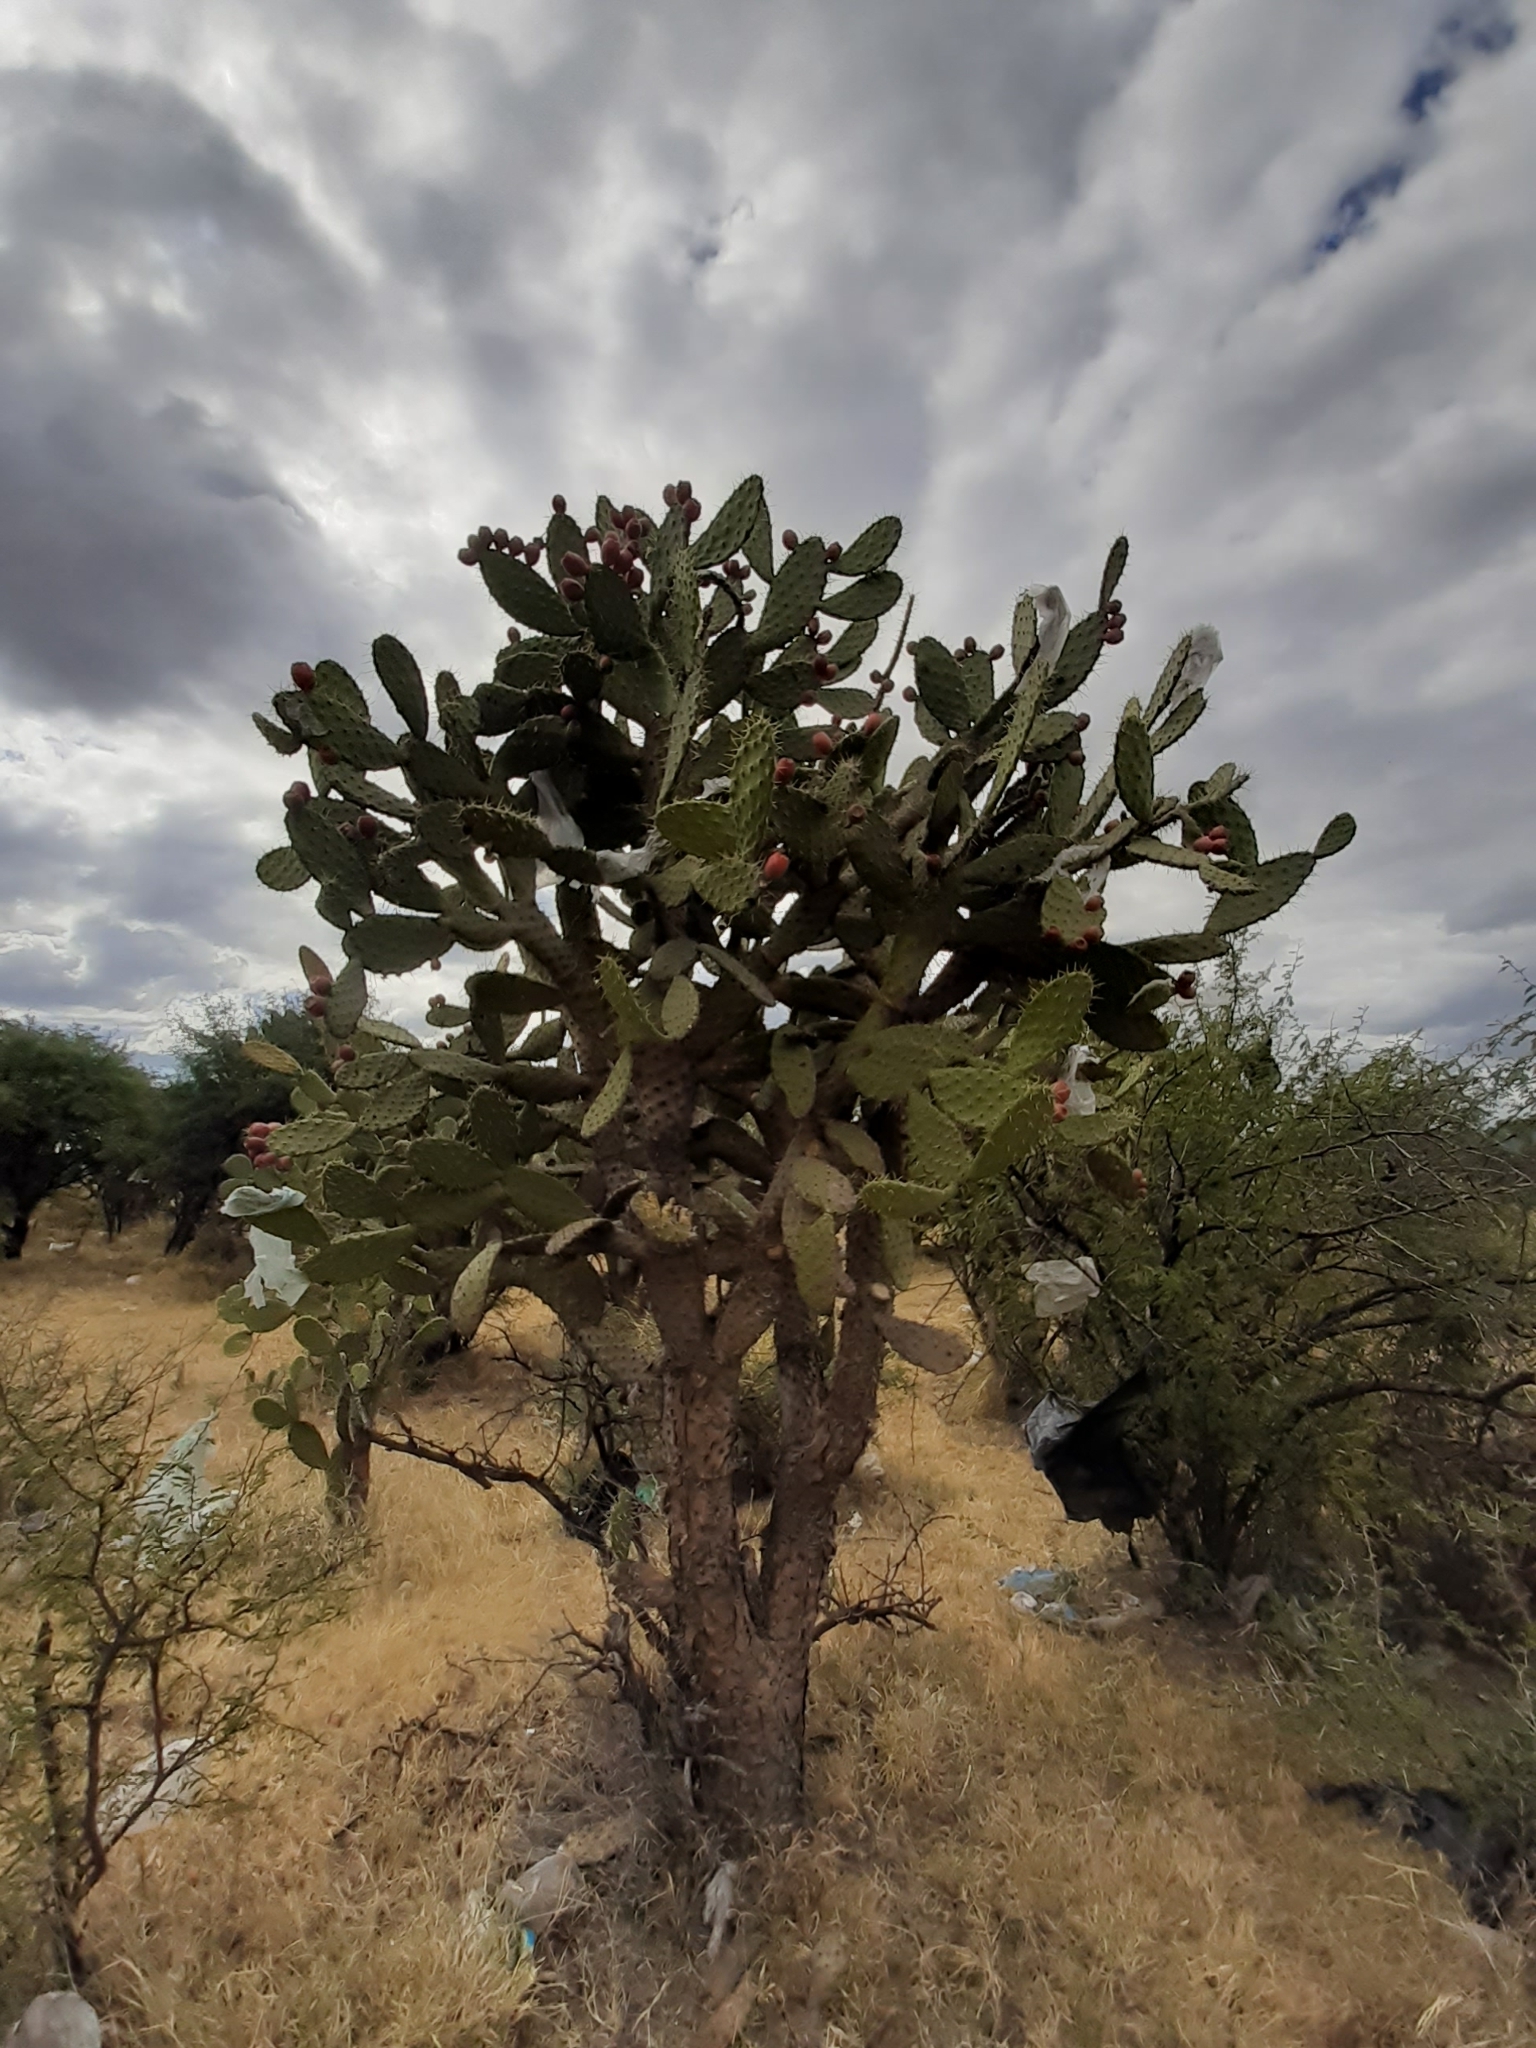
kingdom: Plantae
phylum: Tracheophyta
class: Magnoliopsida
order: Caryophyllales
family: Cactaceae
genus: Opuntia
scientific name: Opuntia tomentosa
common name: Woollyjoint pricklypear
